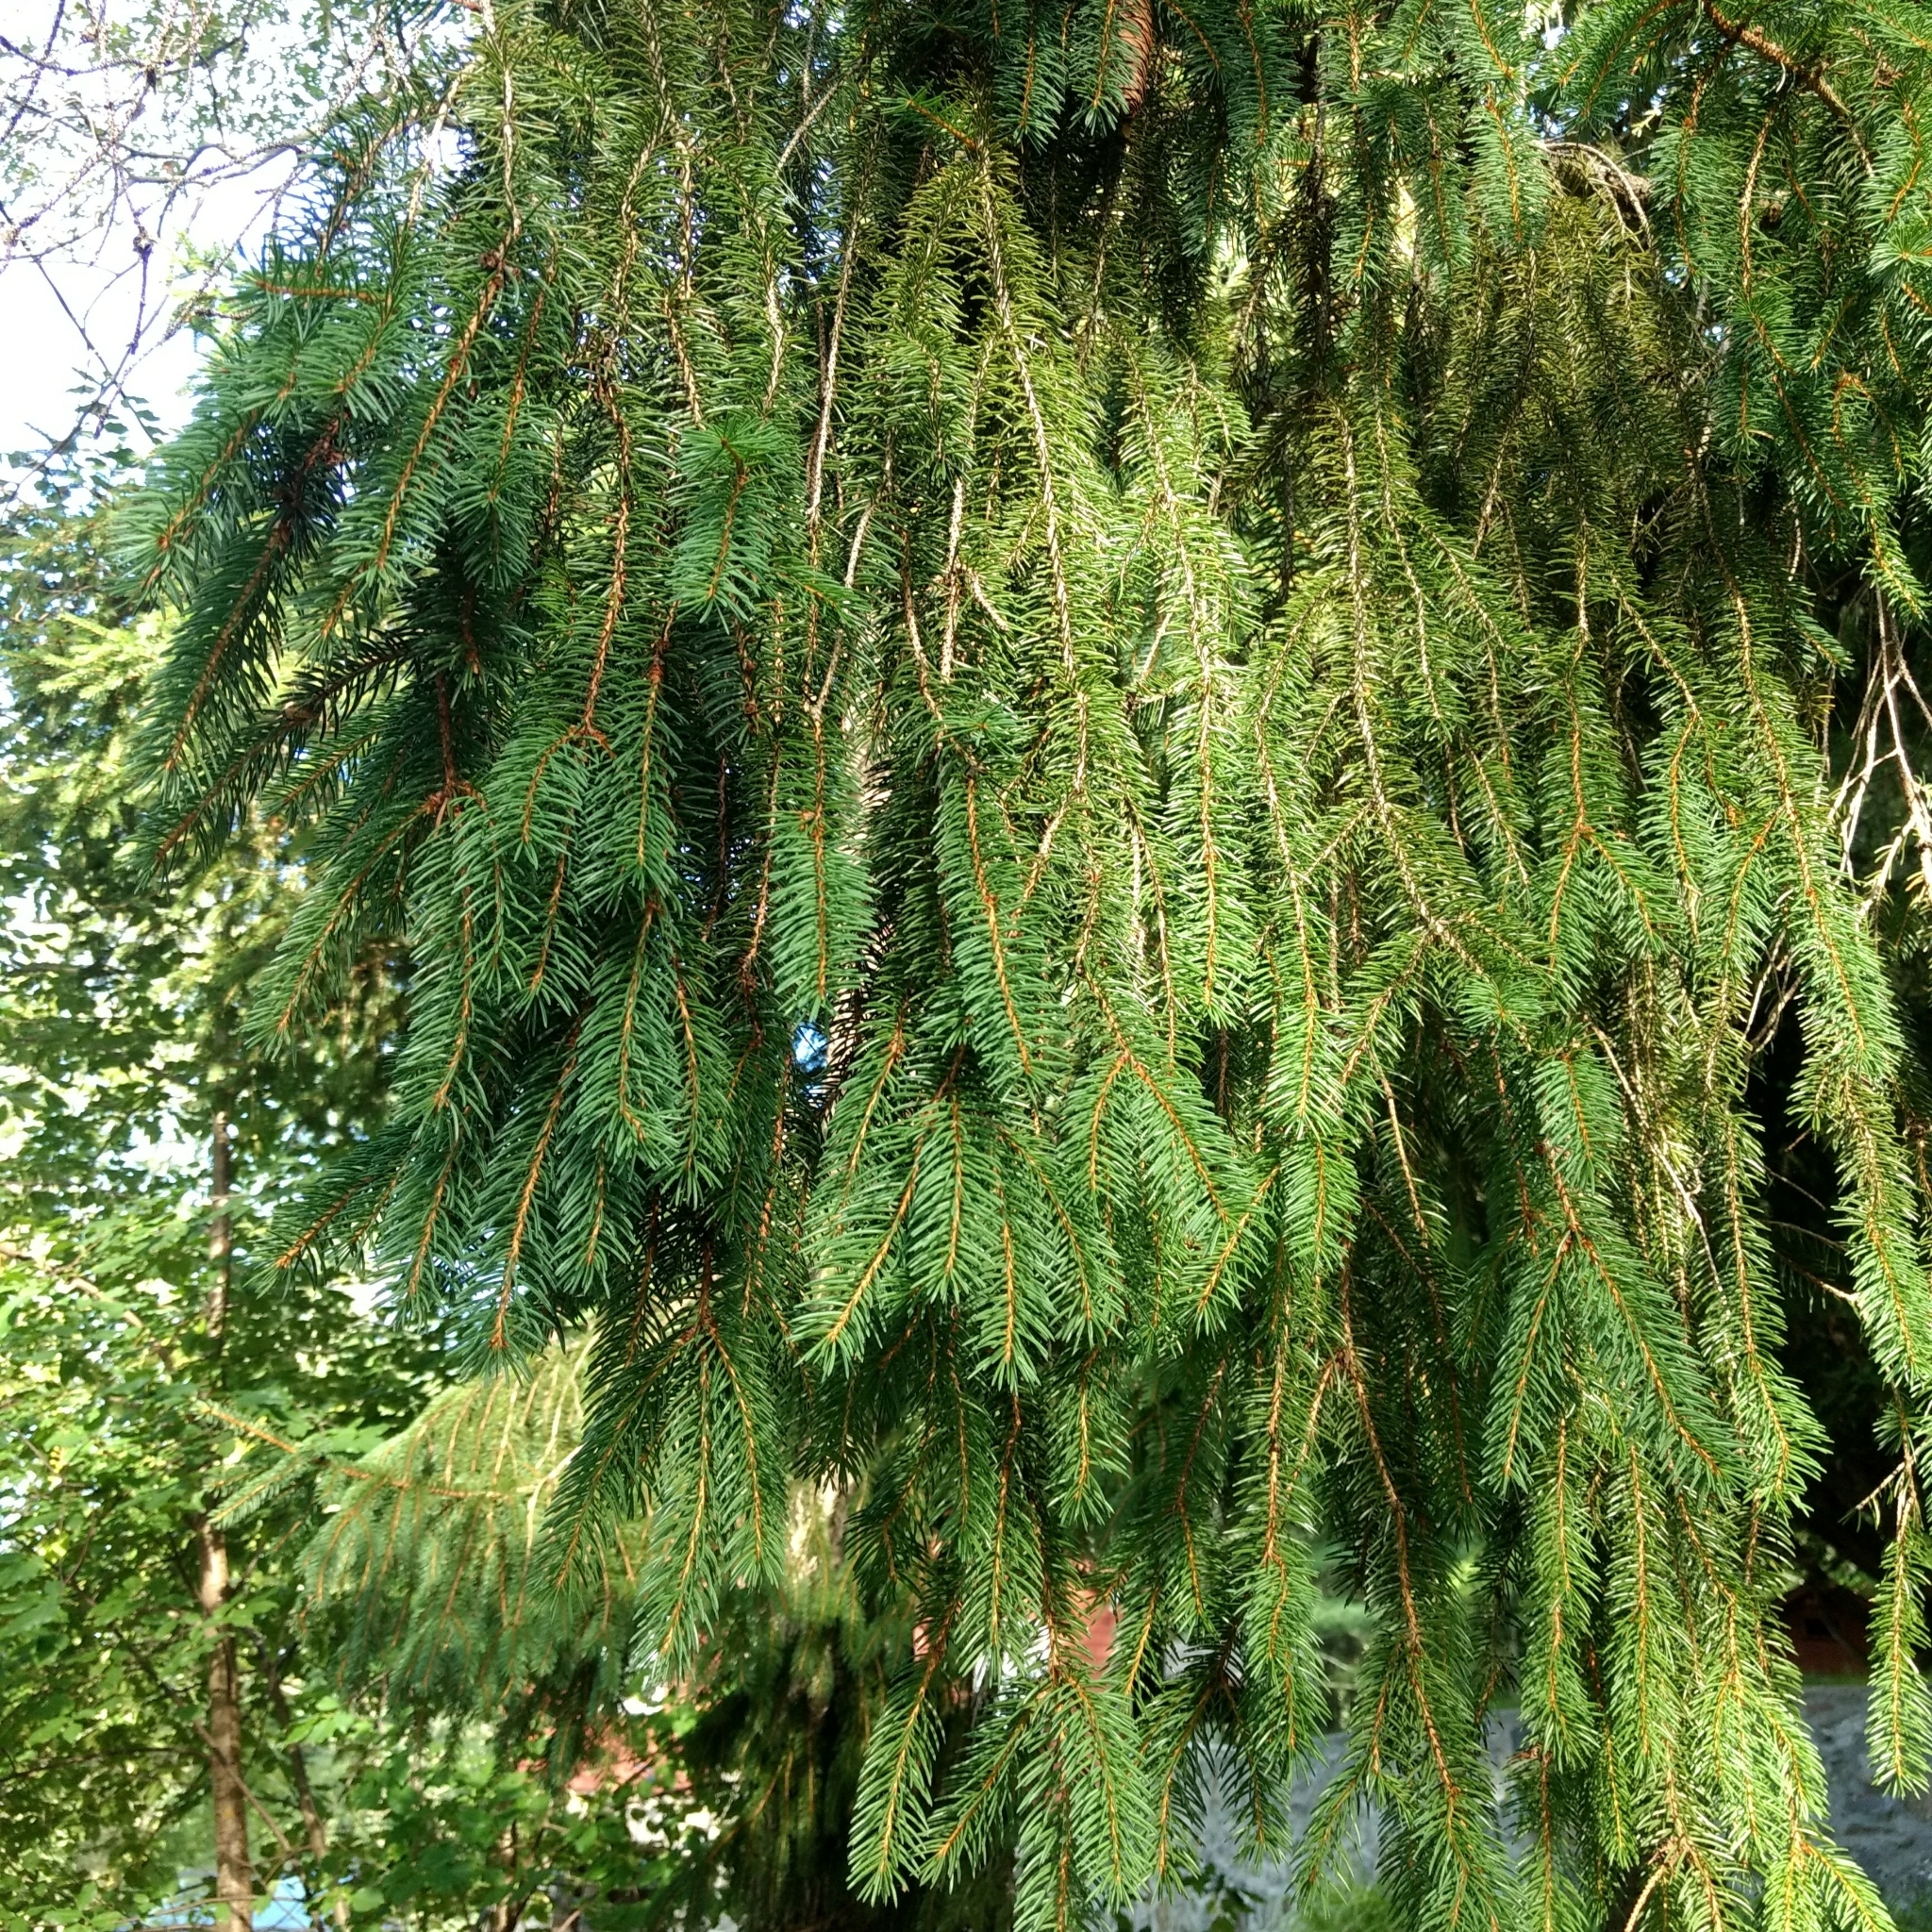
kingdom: Plantae
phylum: Tracheophyta
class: Pinopsida
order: Pinales
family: Pinaceae
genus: Picea
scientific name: Picea abies
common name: Norway spruce
